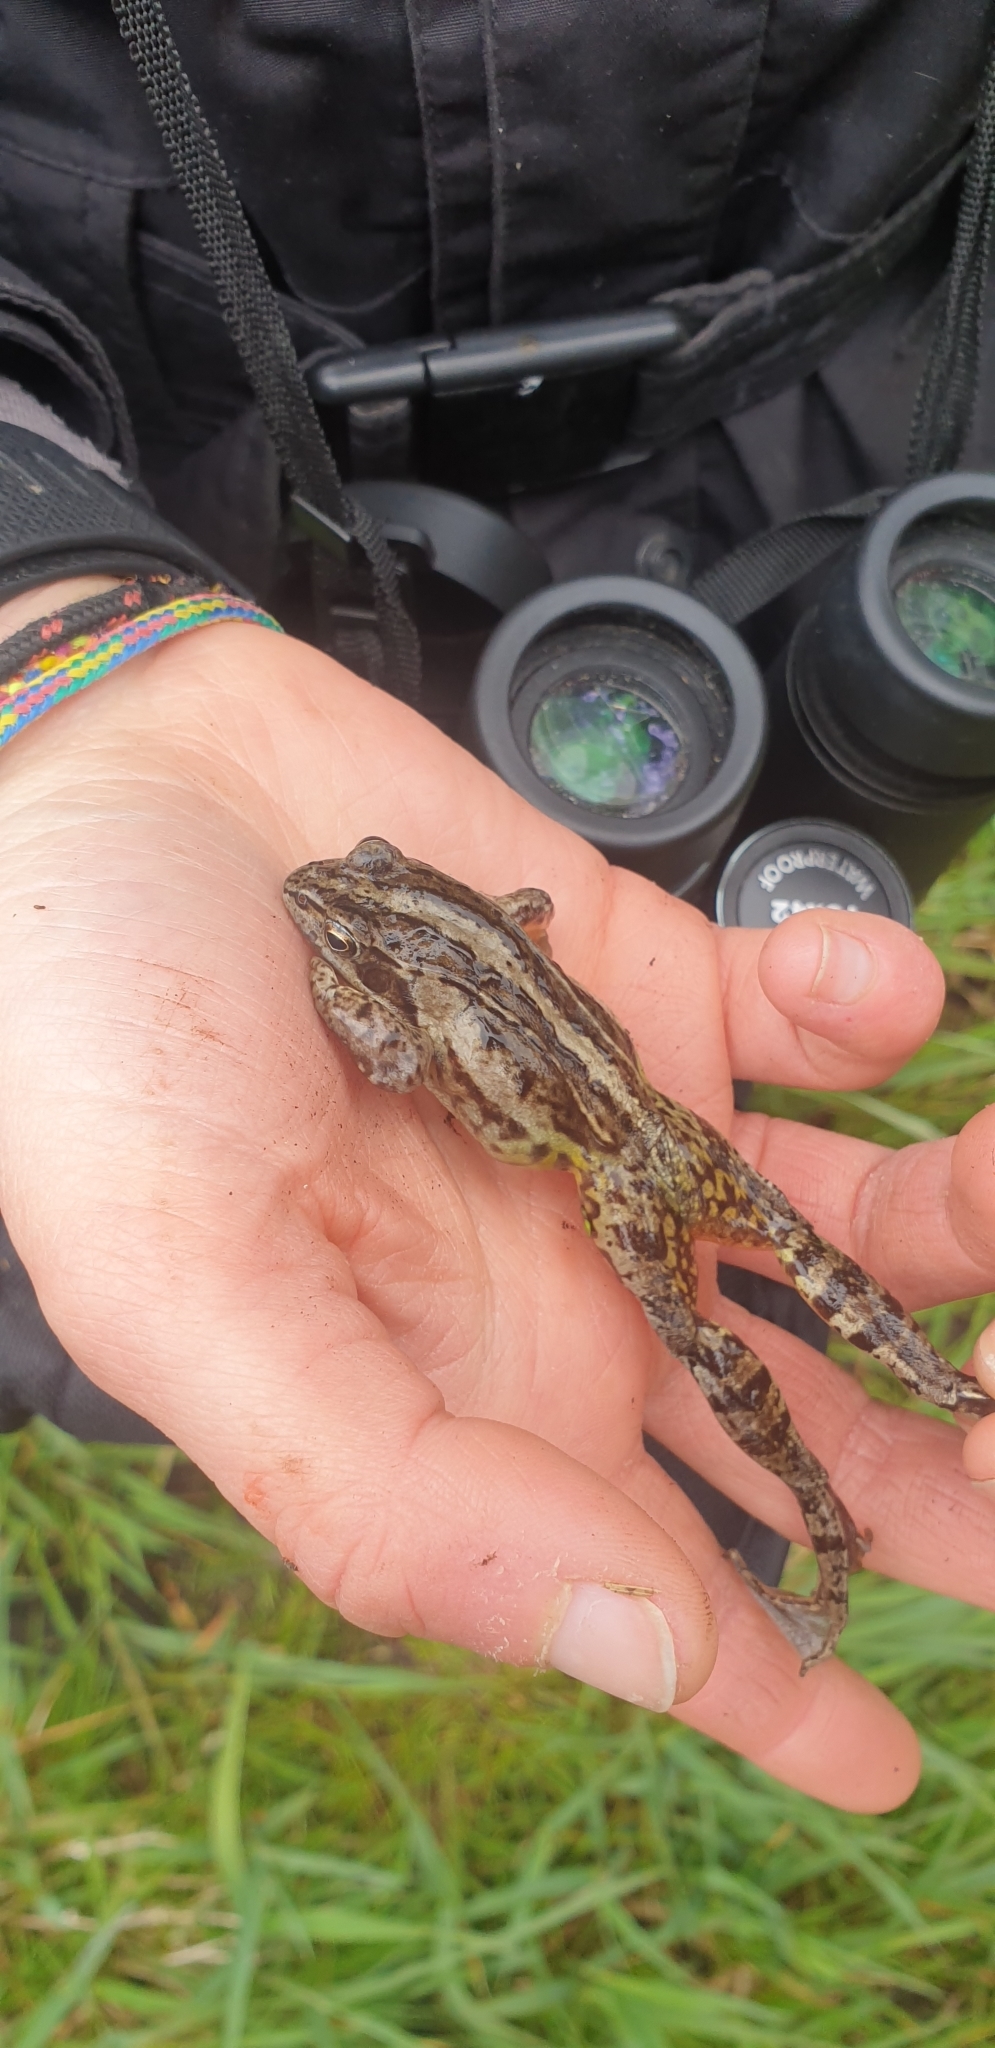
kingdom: Animalia
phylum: Chordata
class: Amphibia
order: Anura
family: Ranidae
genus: Rana
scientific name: Rana arvalis
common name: Moor frog
